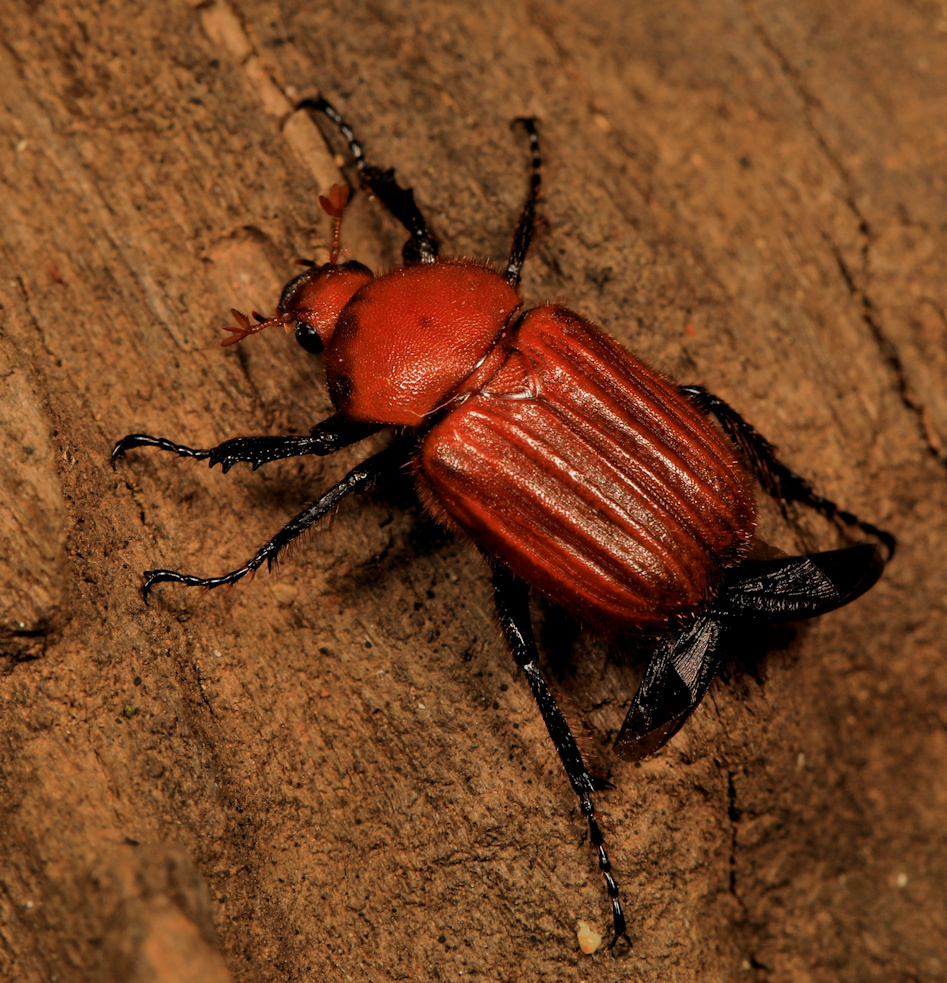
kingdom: Animalia
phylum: Arthropoda
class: Insecta
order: Coleoptera
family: Scarabaeidae
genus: Myodermum
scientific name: Myodermum rufum
